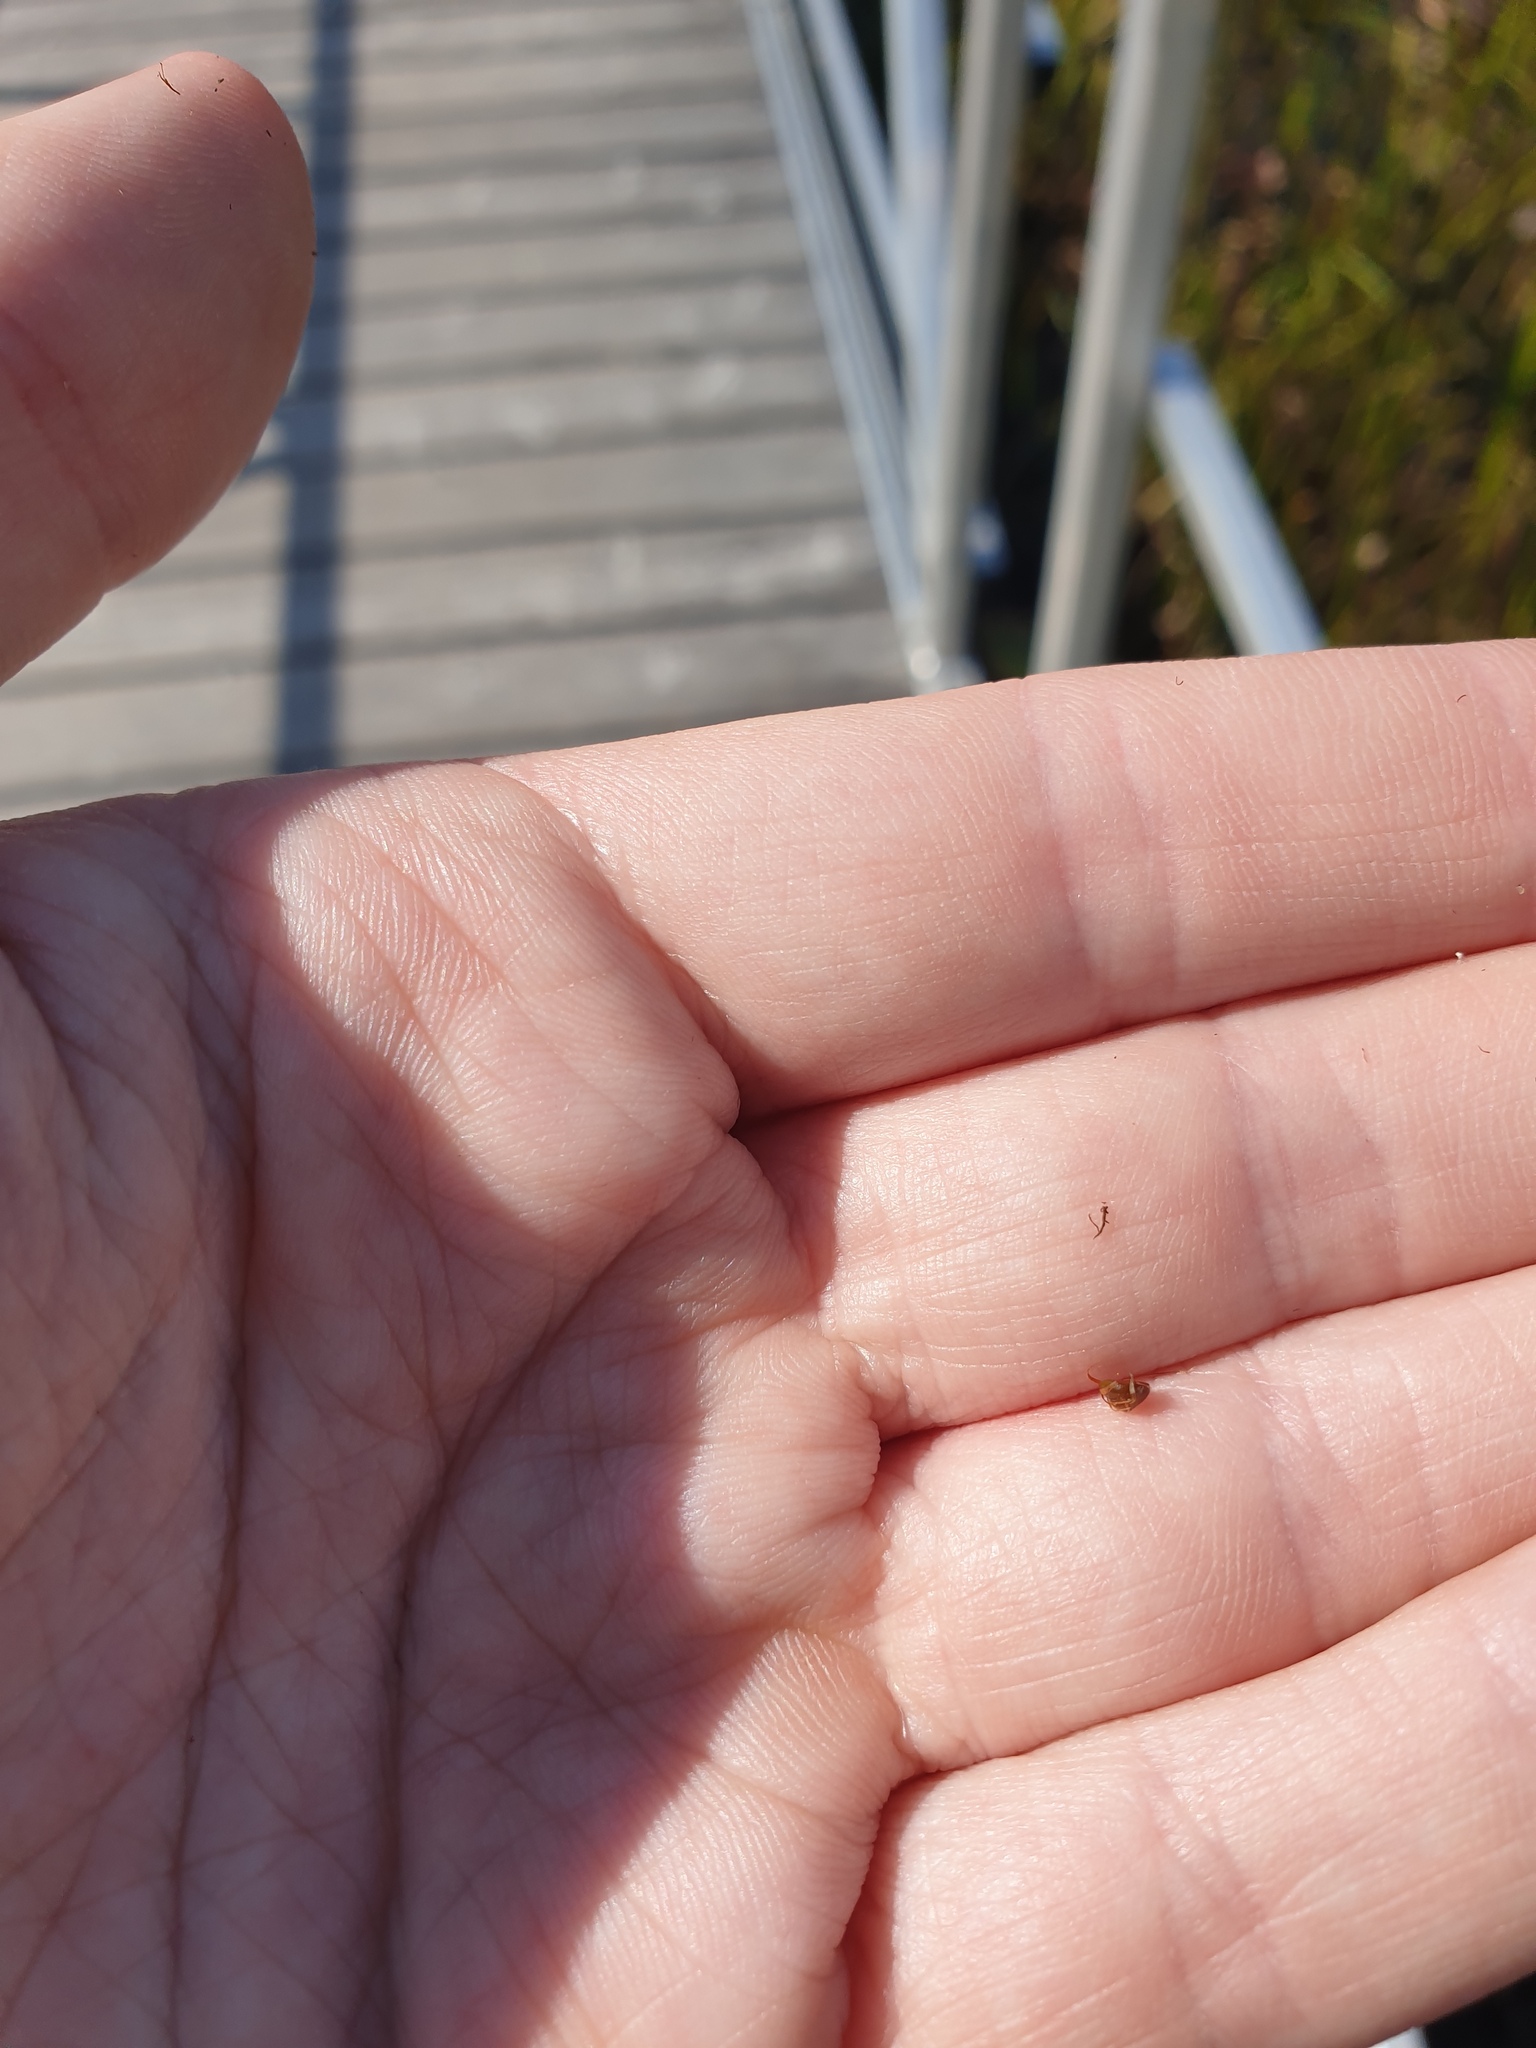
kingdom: Plantae
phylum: Tracheophyta
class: Liliopsida
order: Poales
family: Cyperaceae
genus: Schoenoplectus
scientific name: Schoenoplectus torreyi
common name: Torrey's bulrush
